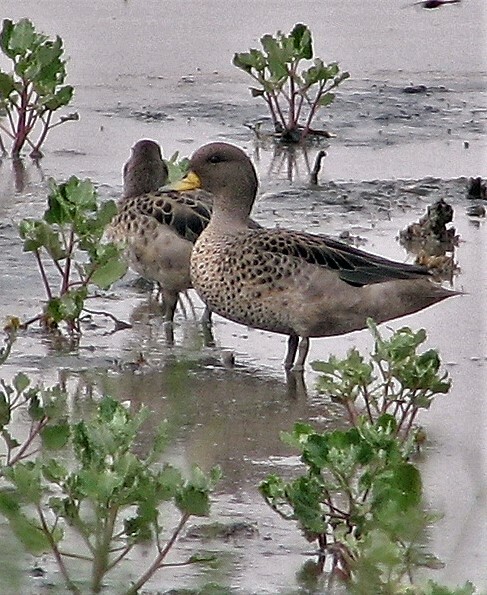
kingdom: Animalia
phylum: Chordata
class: Aves
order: Anseriformes
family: Anatidae
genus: Anas
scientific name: Anas flavirostris
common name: Yellow-billed teal
